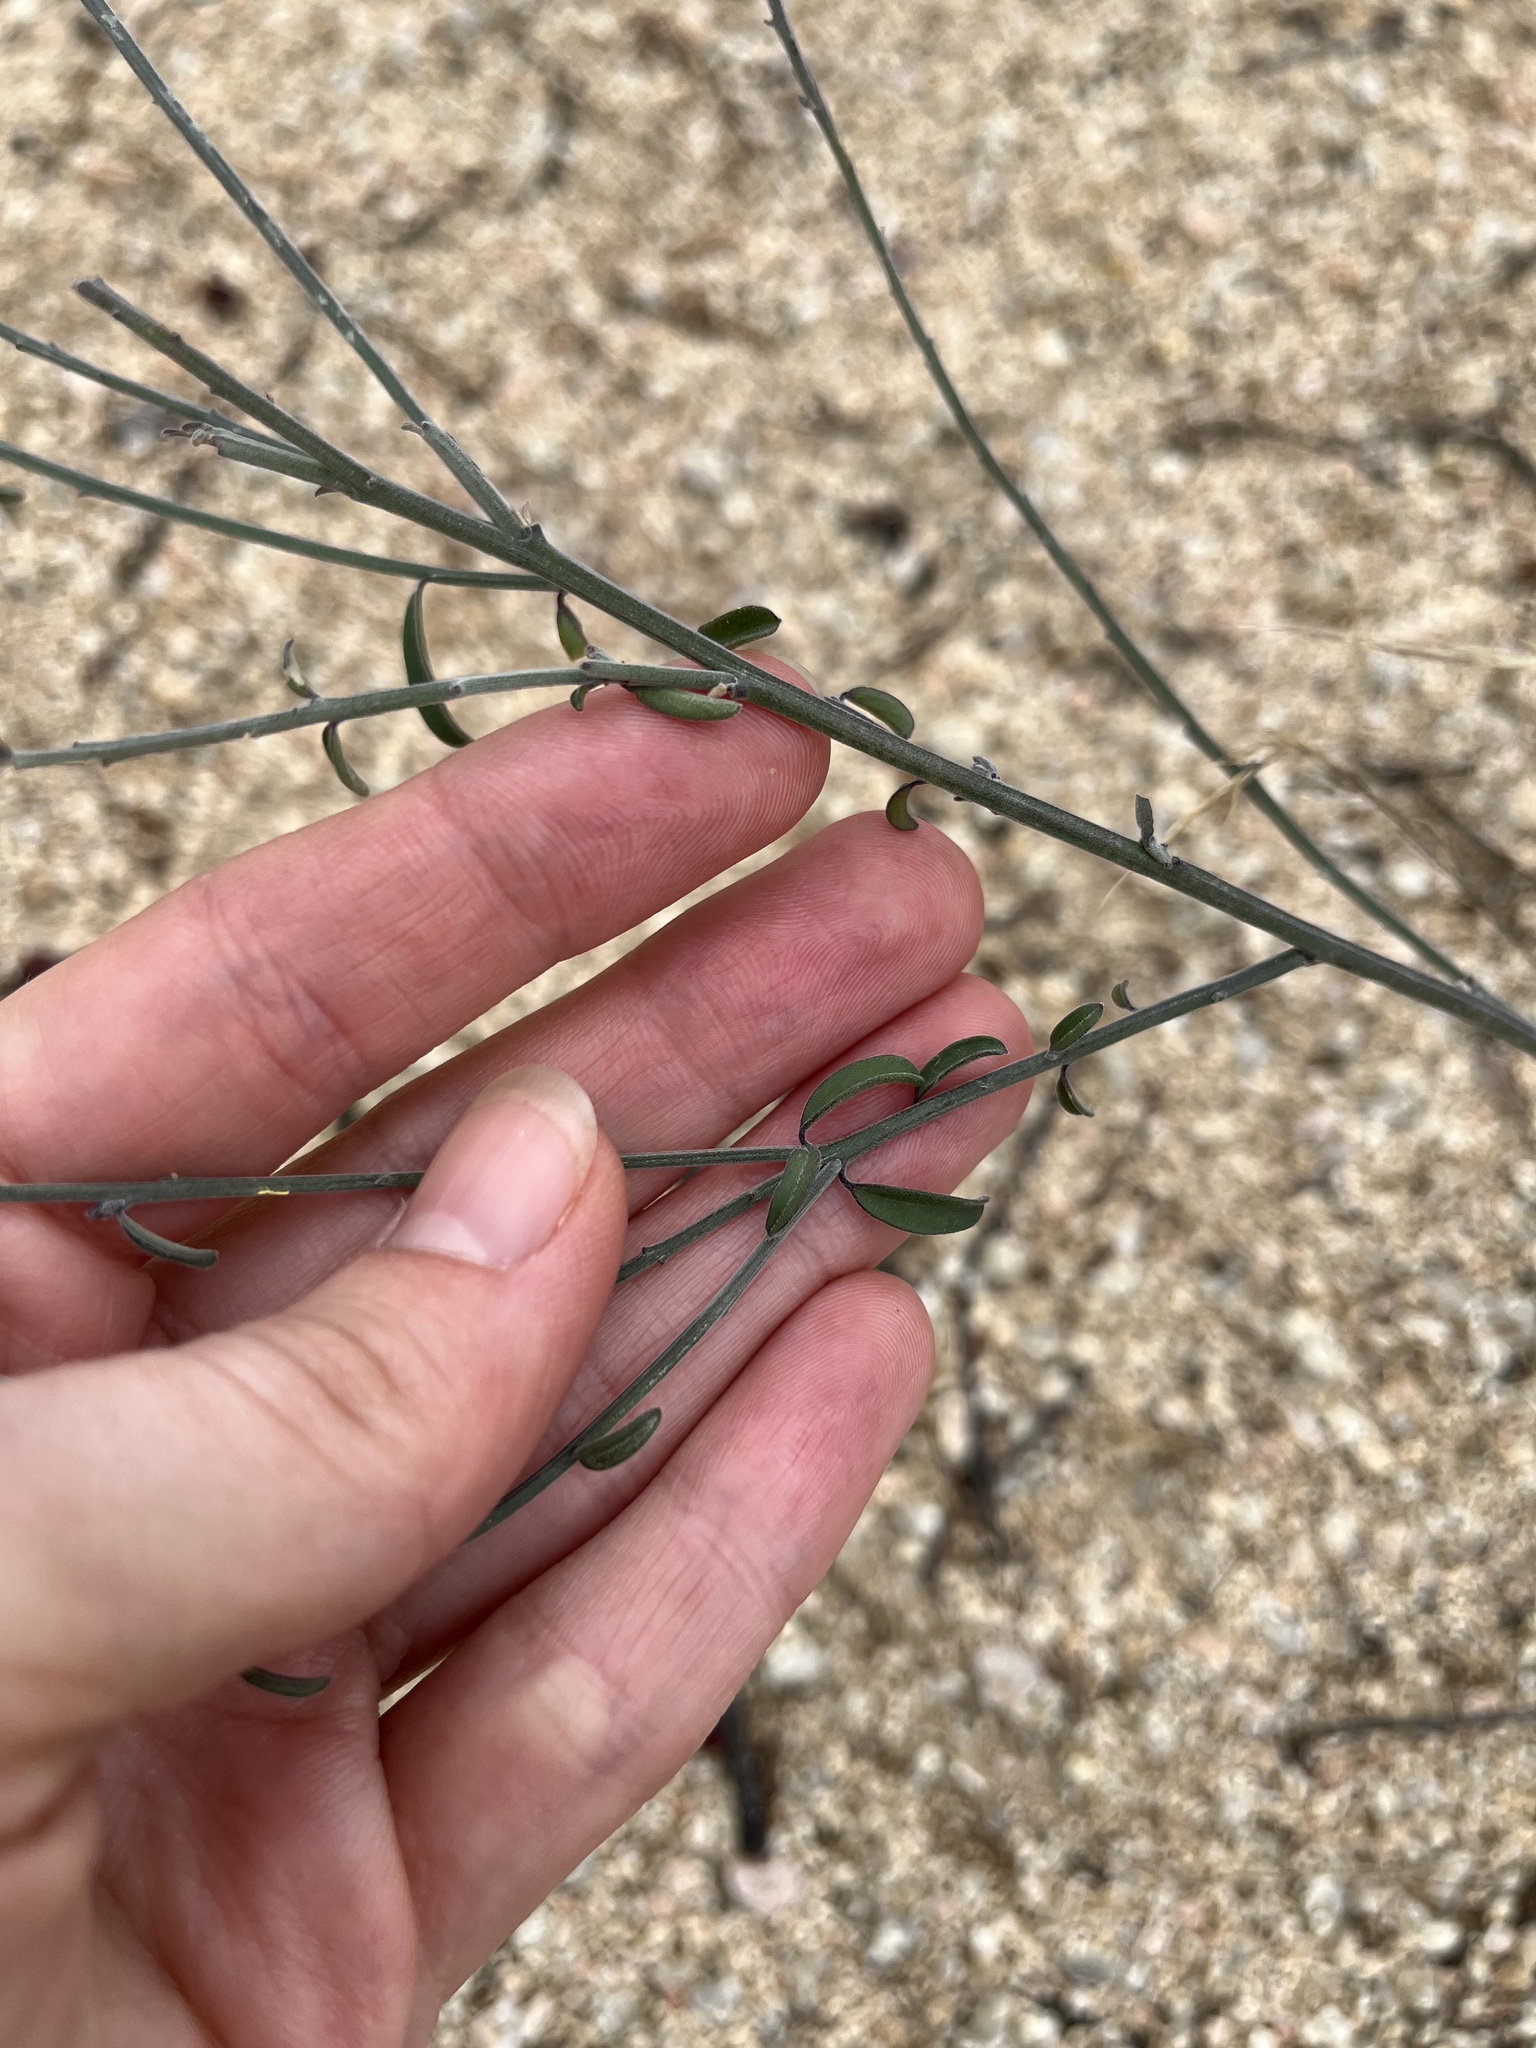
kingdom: Plantae
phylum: Tracheophyta
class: Magnoliopsida
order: Fabales
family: Polygalaceae
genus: Polygala
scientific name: Polygala magdalenae
